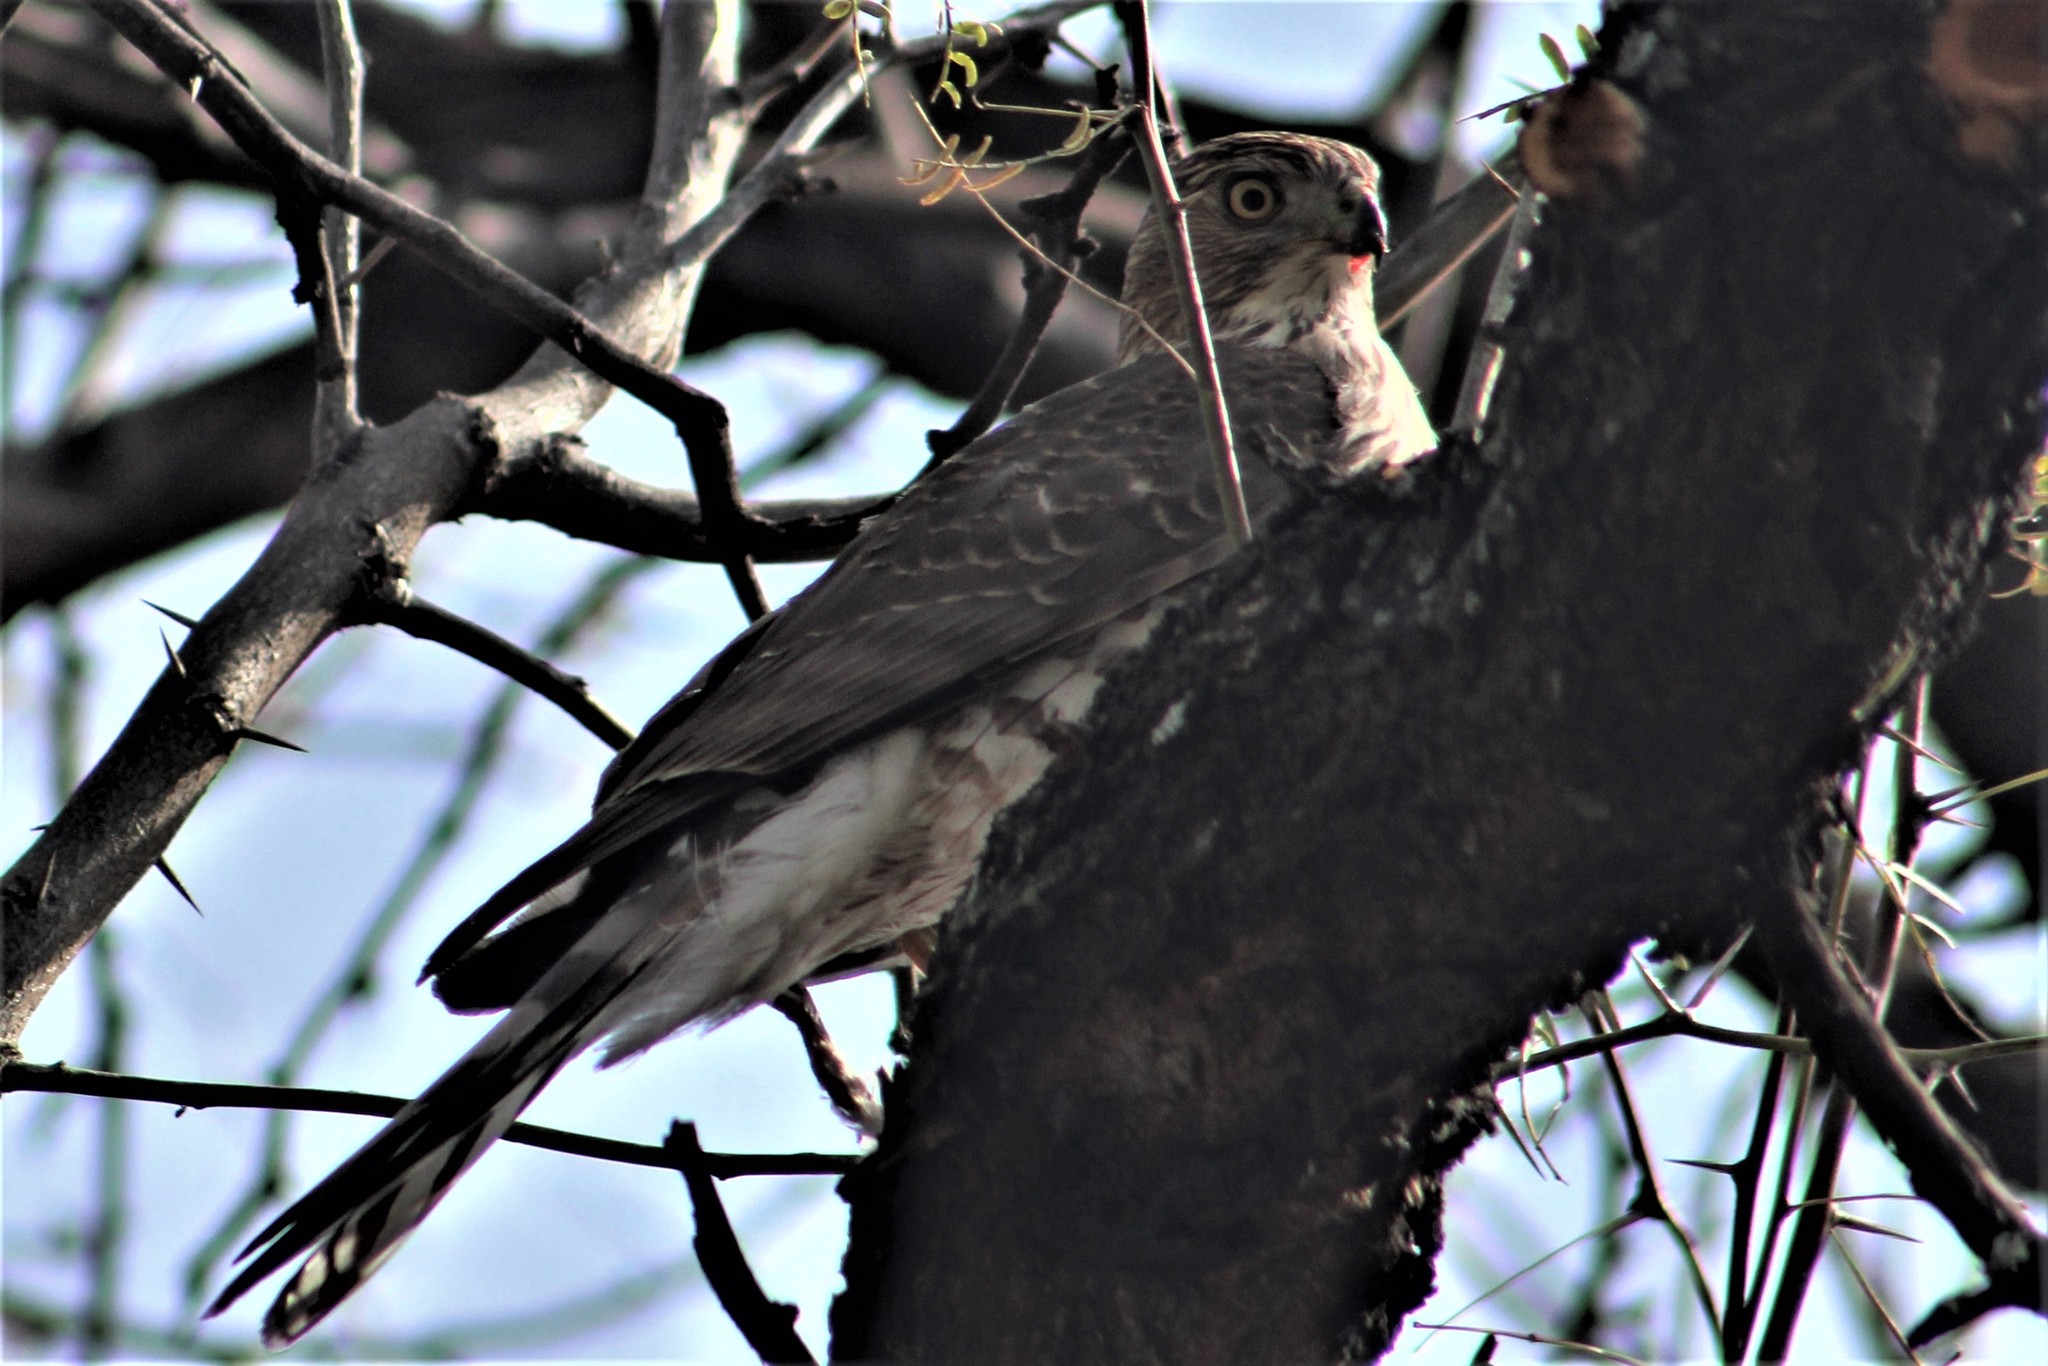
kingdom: Animalia
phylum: Chordata
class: Aves
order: Accipitriformes
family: Accipitridae
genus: Accipiter
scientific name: Accipiter cooperii
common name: Cooper's hawk
